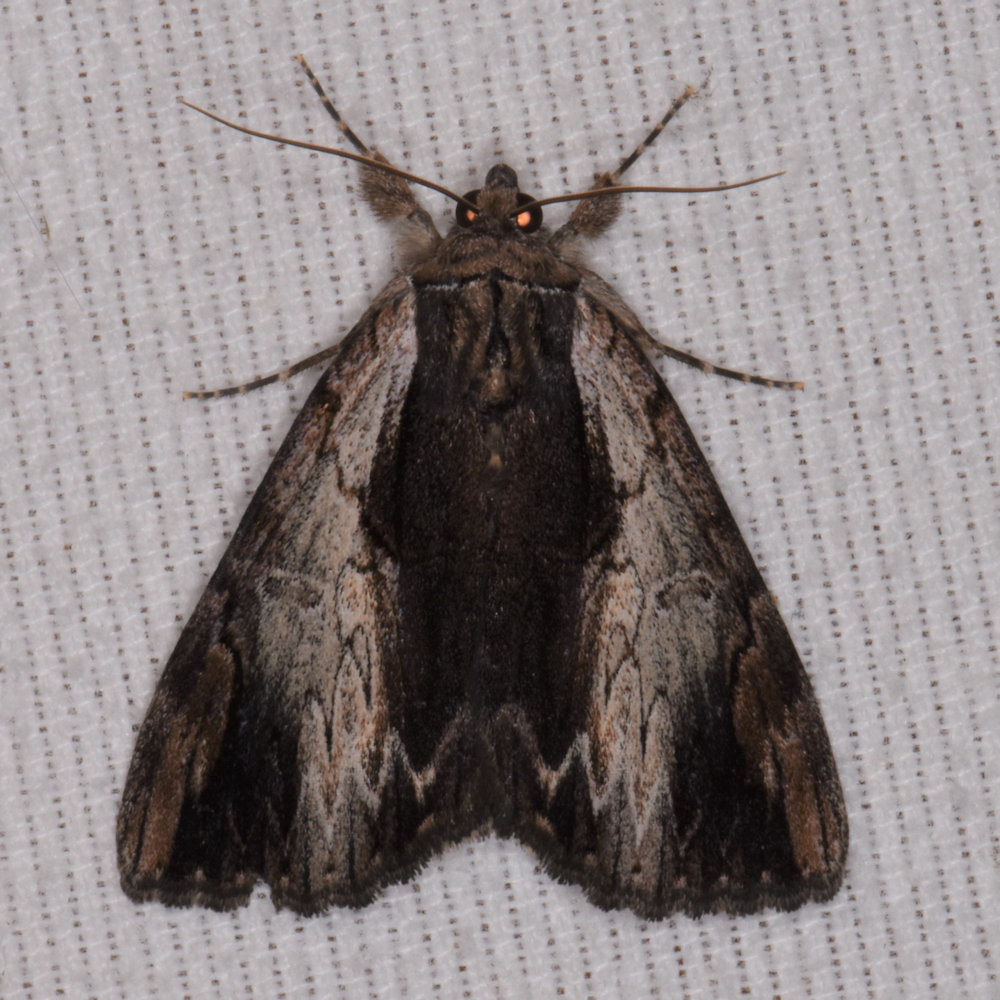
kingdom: Animalia
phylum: Arthropoda
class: Insecta
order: Lepidoptera
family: Erebidae
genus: Catocala
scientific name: Catocala ultronia
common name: Ultronia underwing
